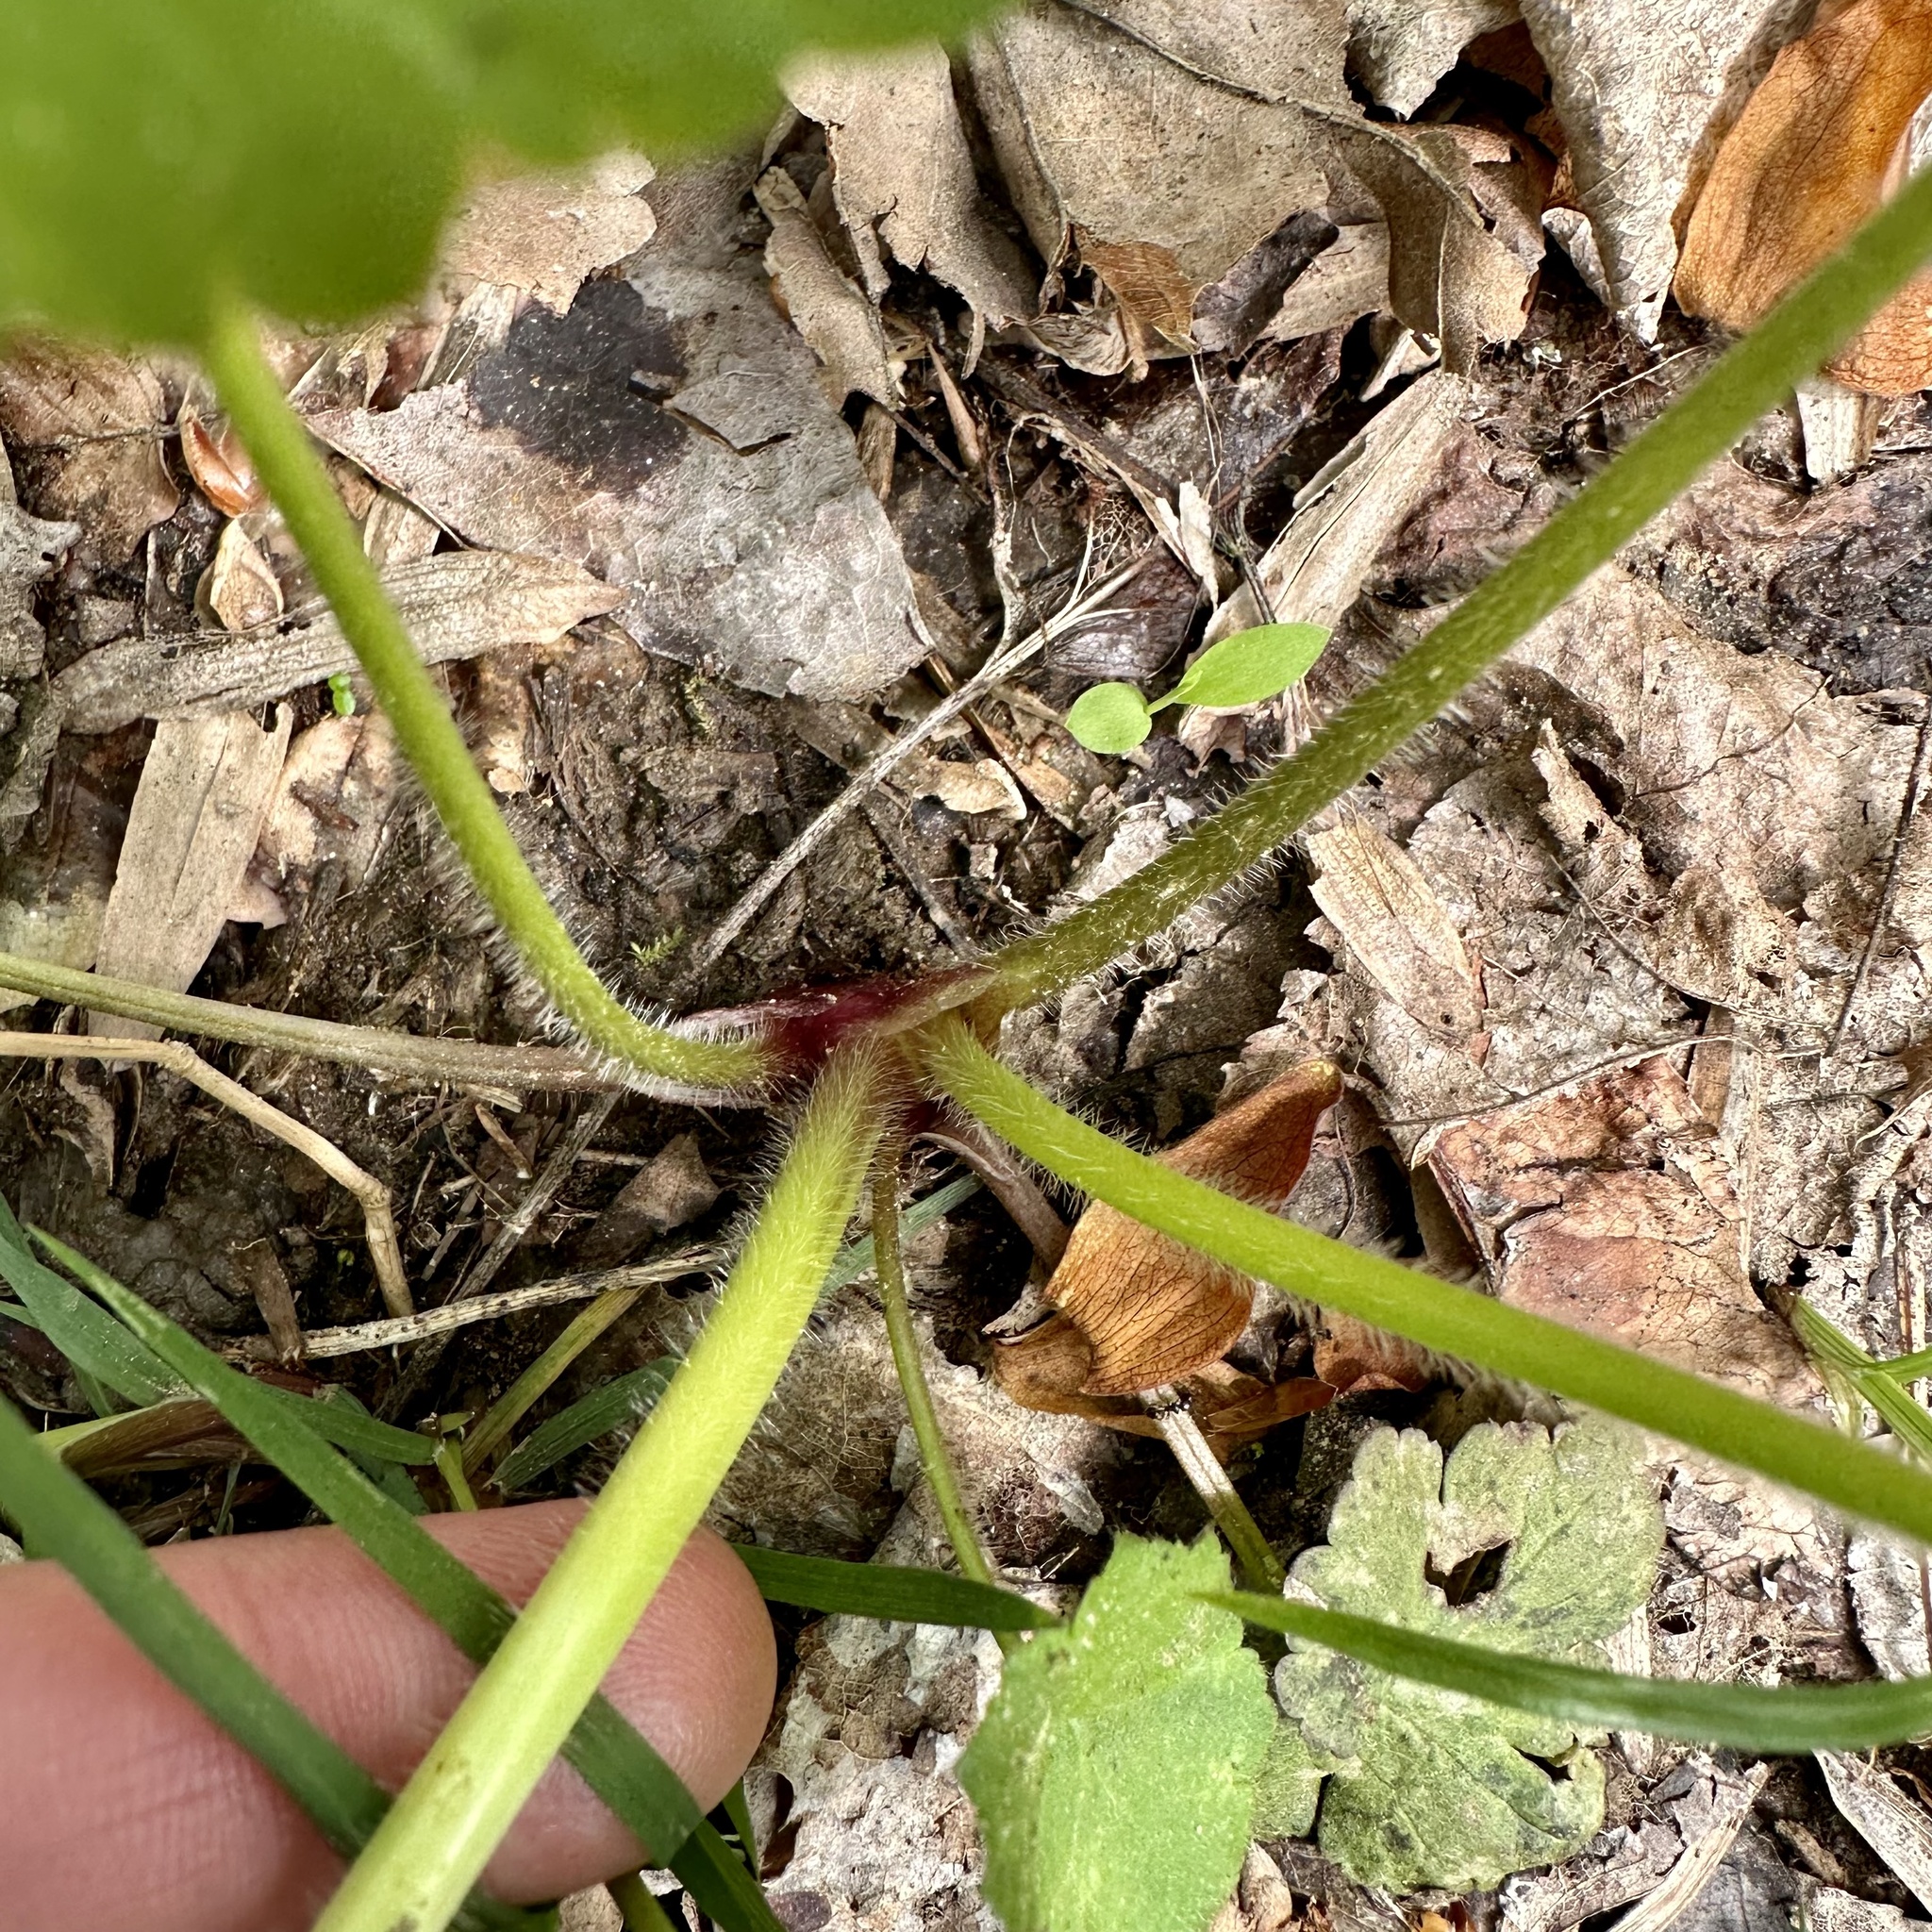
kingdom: Plantae
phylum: Tracheophyta
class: Magnoliopsida
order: Ranunculales
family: Ranunculaceae
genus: Ranunculus
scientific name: Ranunculus recurvatus
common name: Blisterwort
